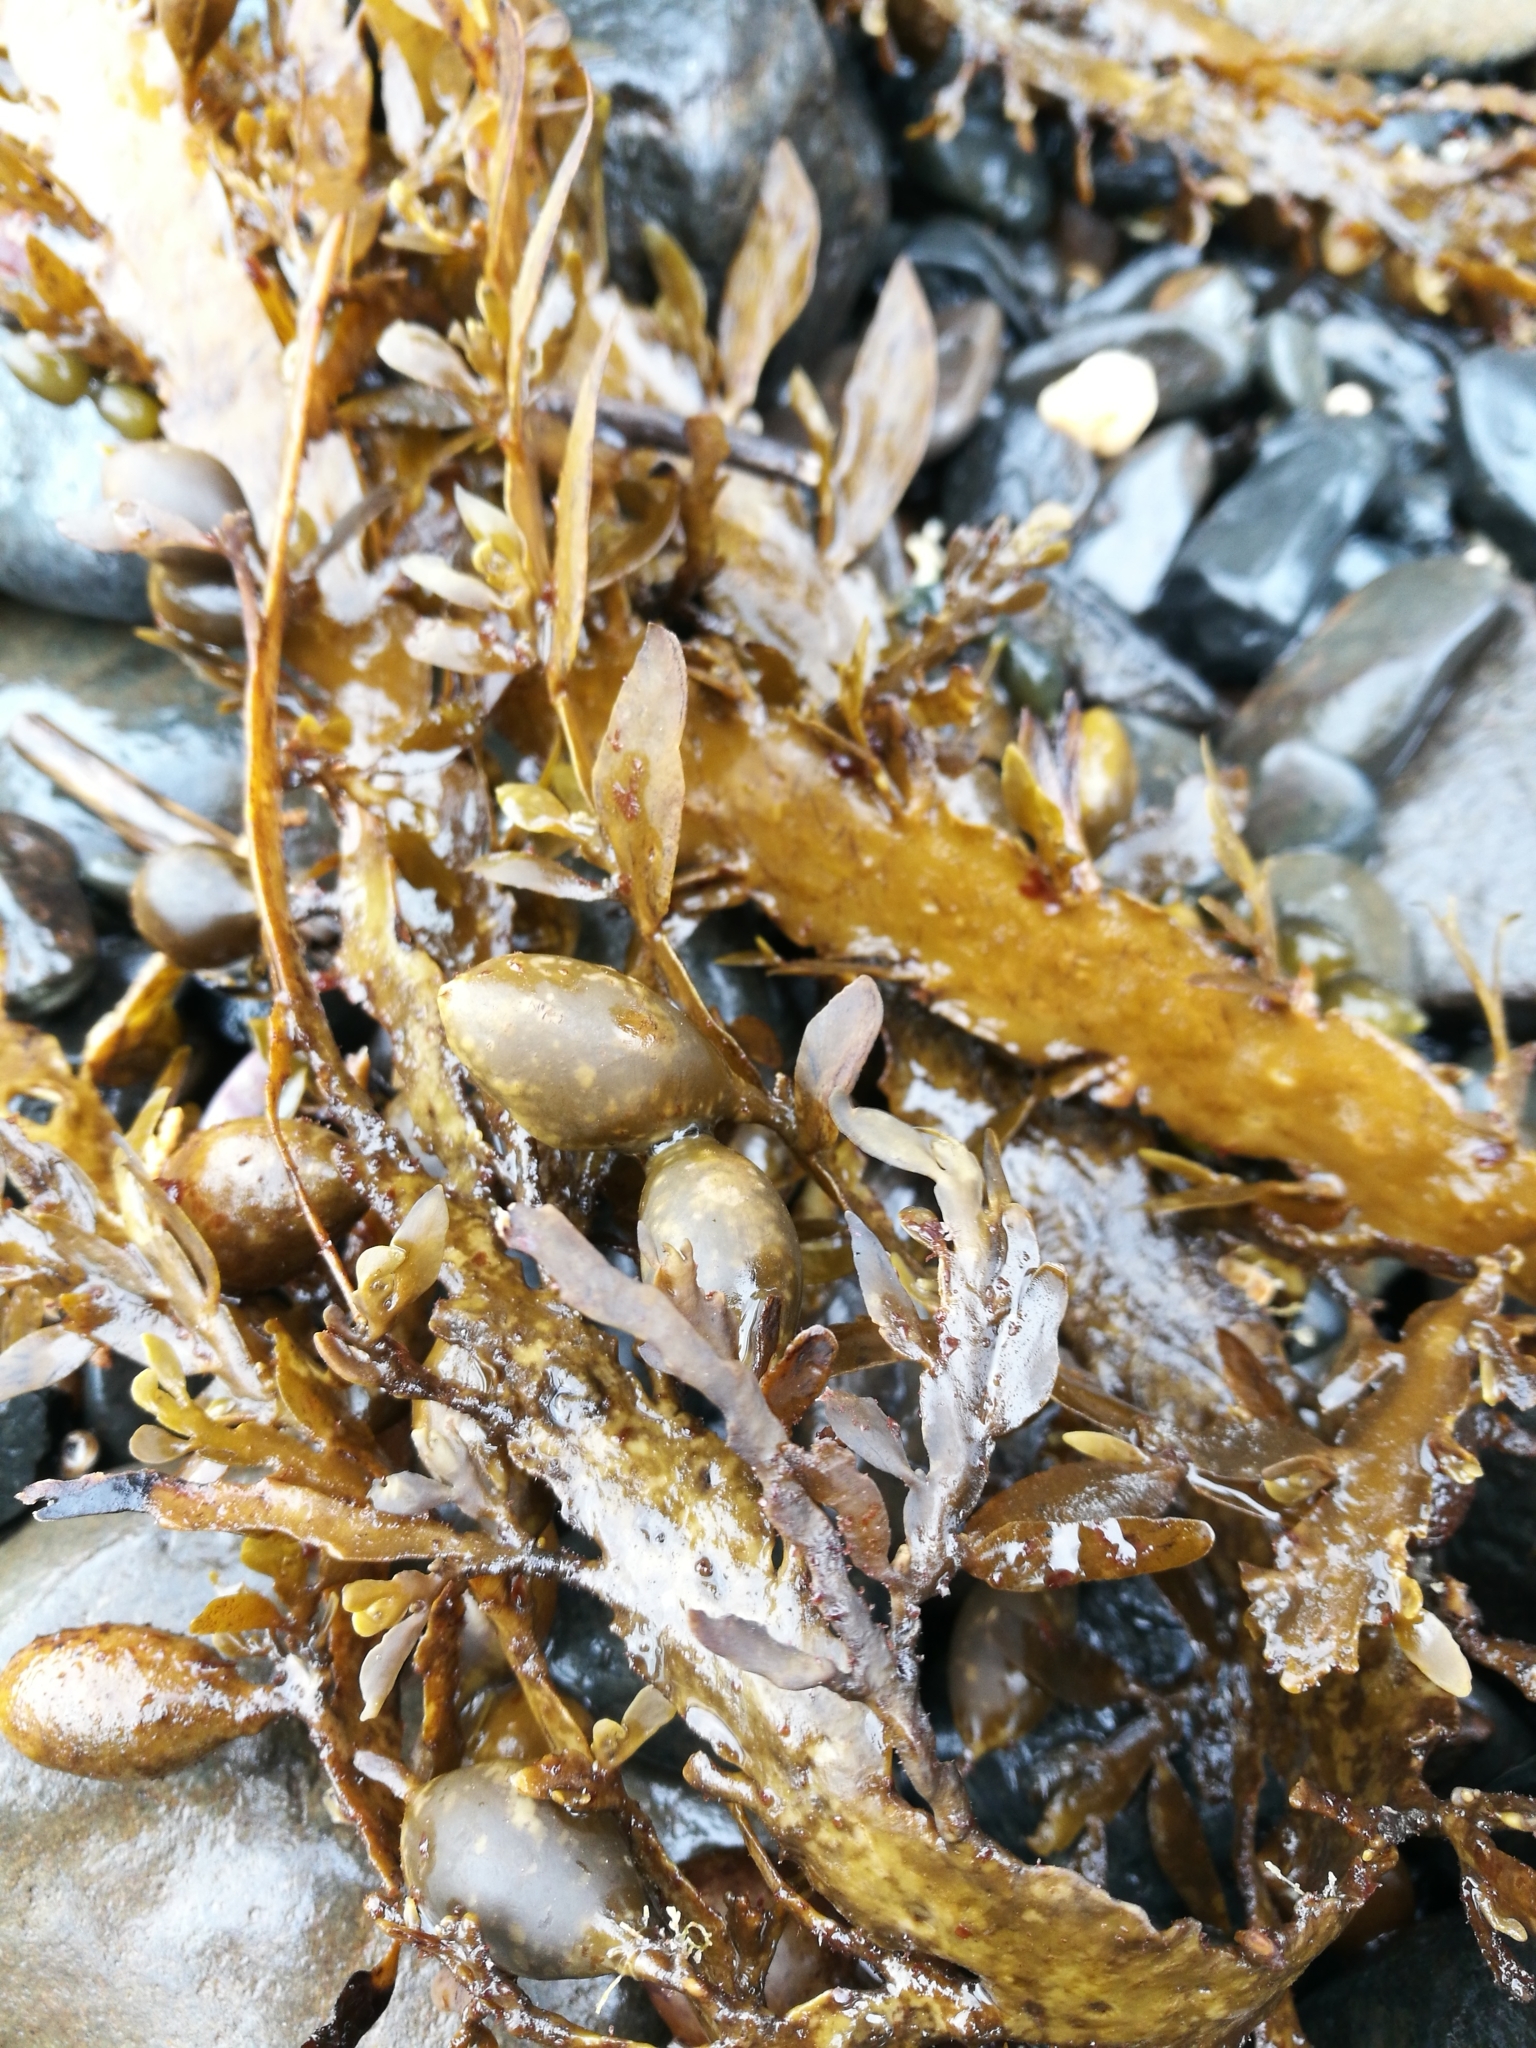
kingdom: Chromista
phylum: Ochrophyta
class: Phaeophyceae
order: Fucales
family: Sargassaceae
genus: Carpophyllum
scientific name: Carpophyllum maschalocarpum
